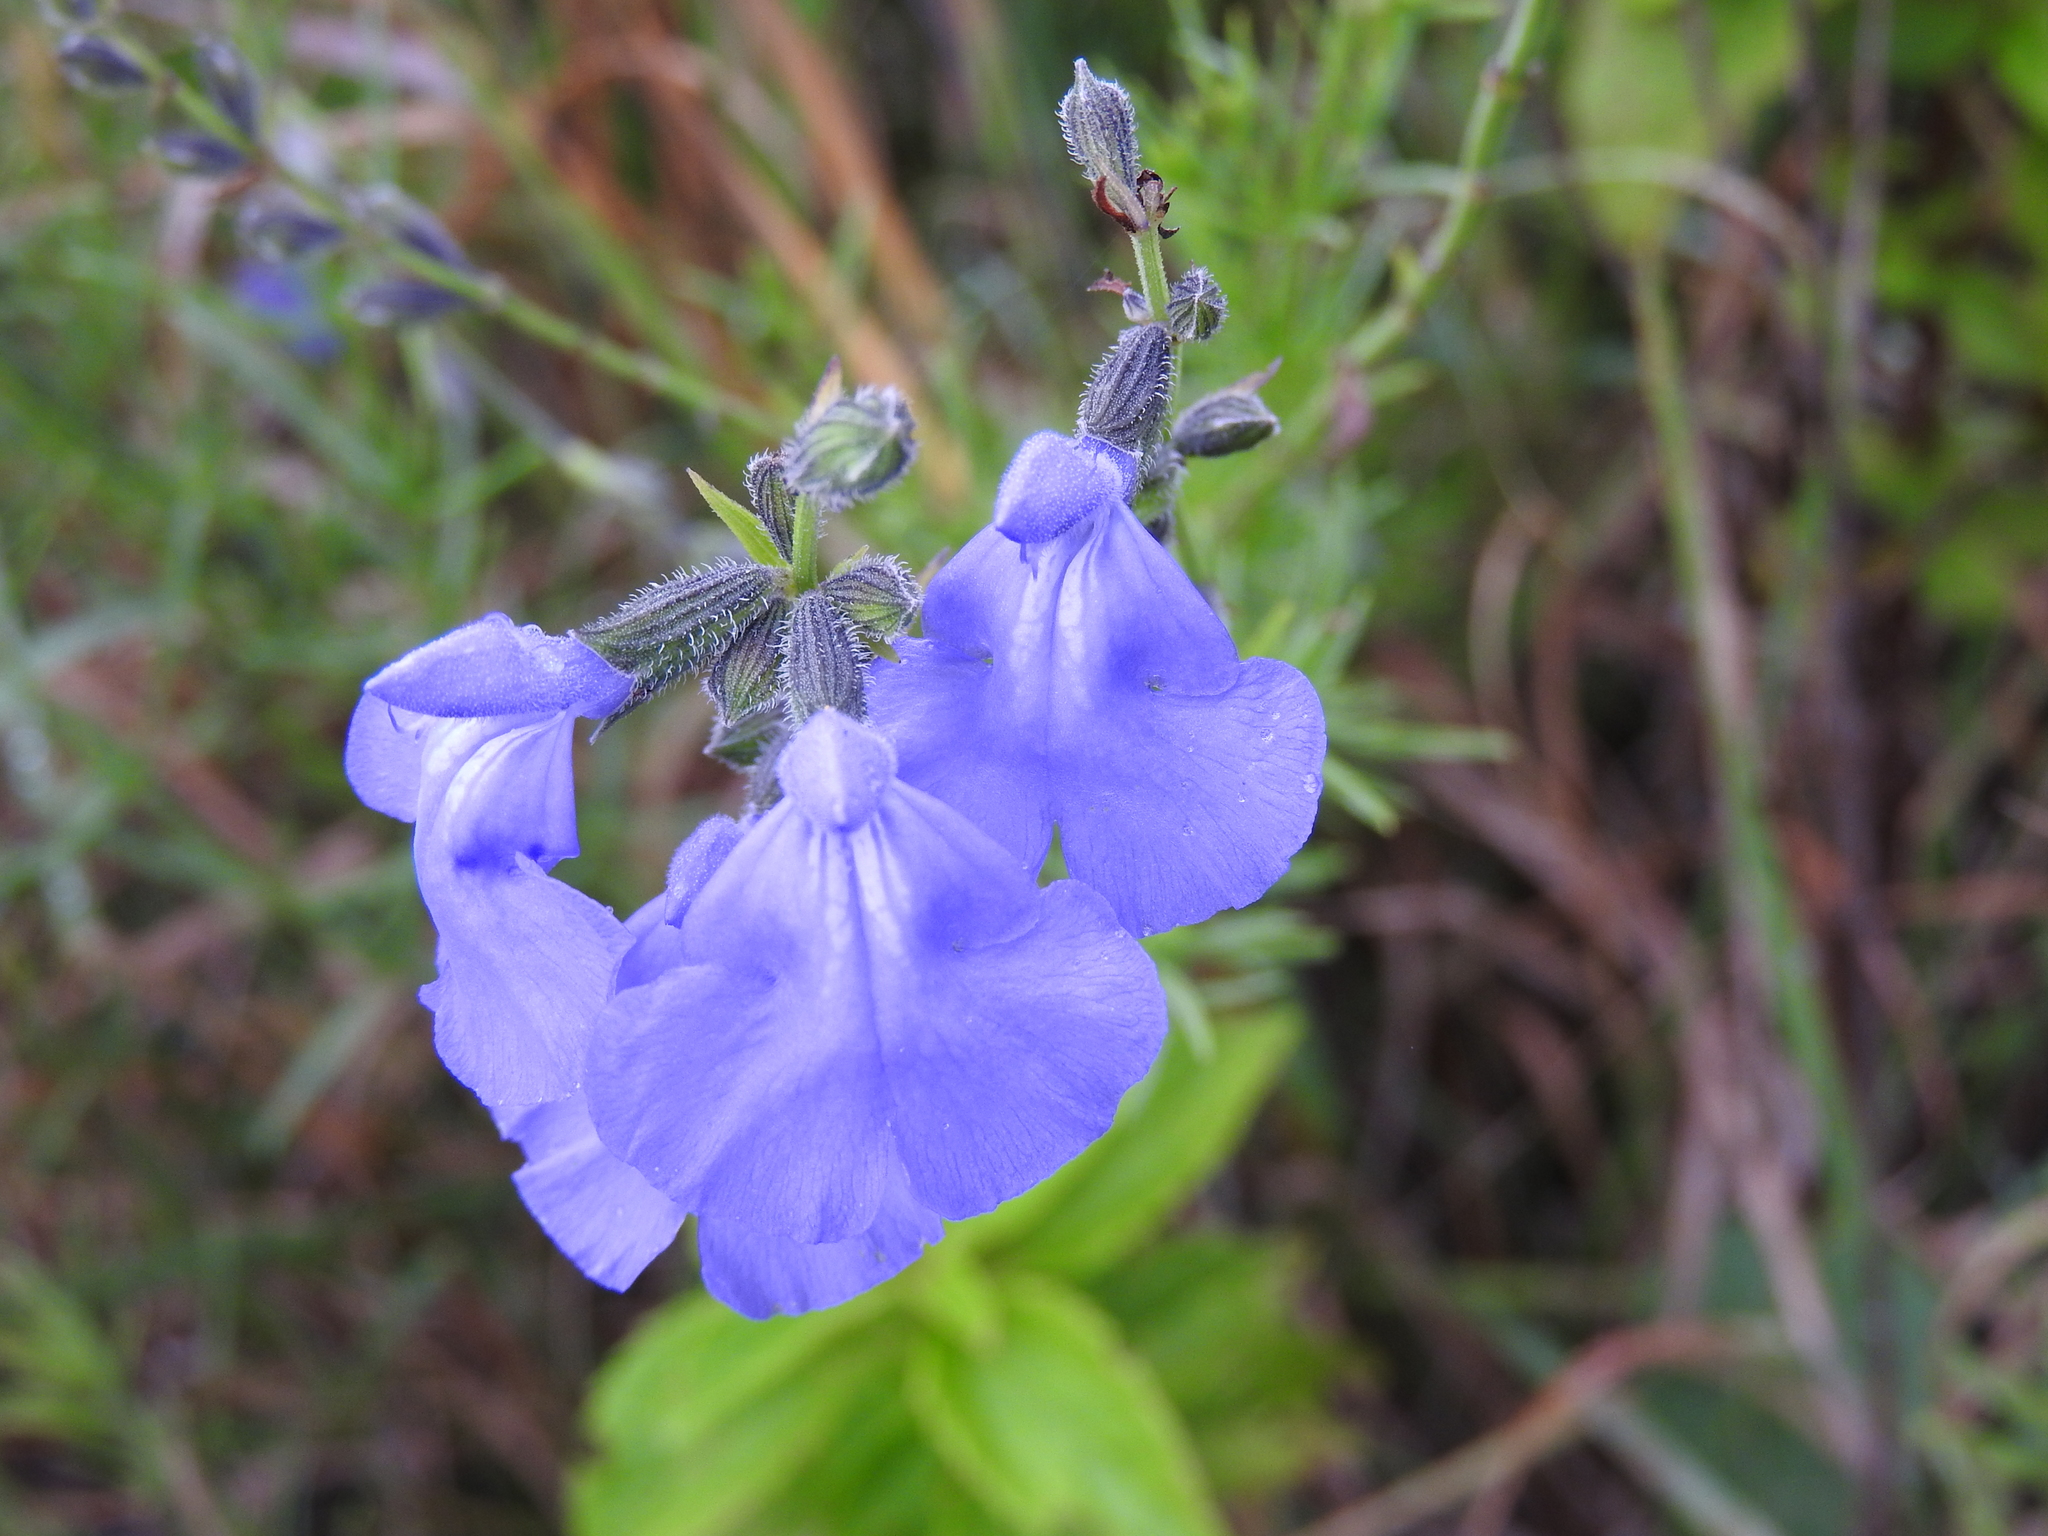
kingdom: Plantae
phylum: Tracheophyta
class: Magnoliopsida
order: Lamiales
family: Lamiaceae
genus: Salvia
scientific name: Salvia reptans
